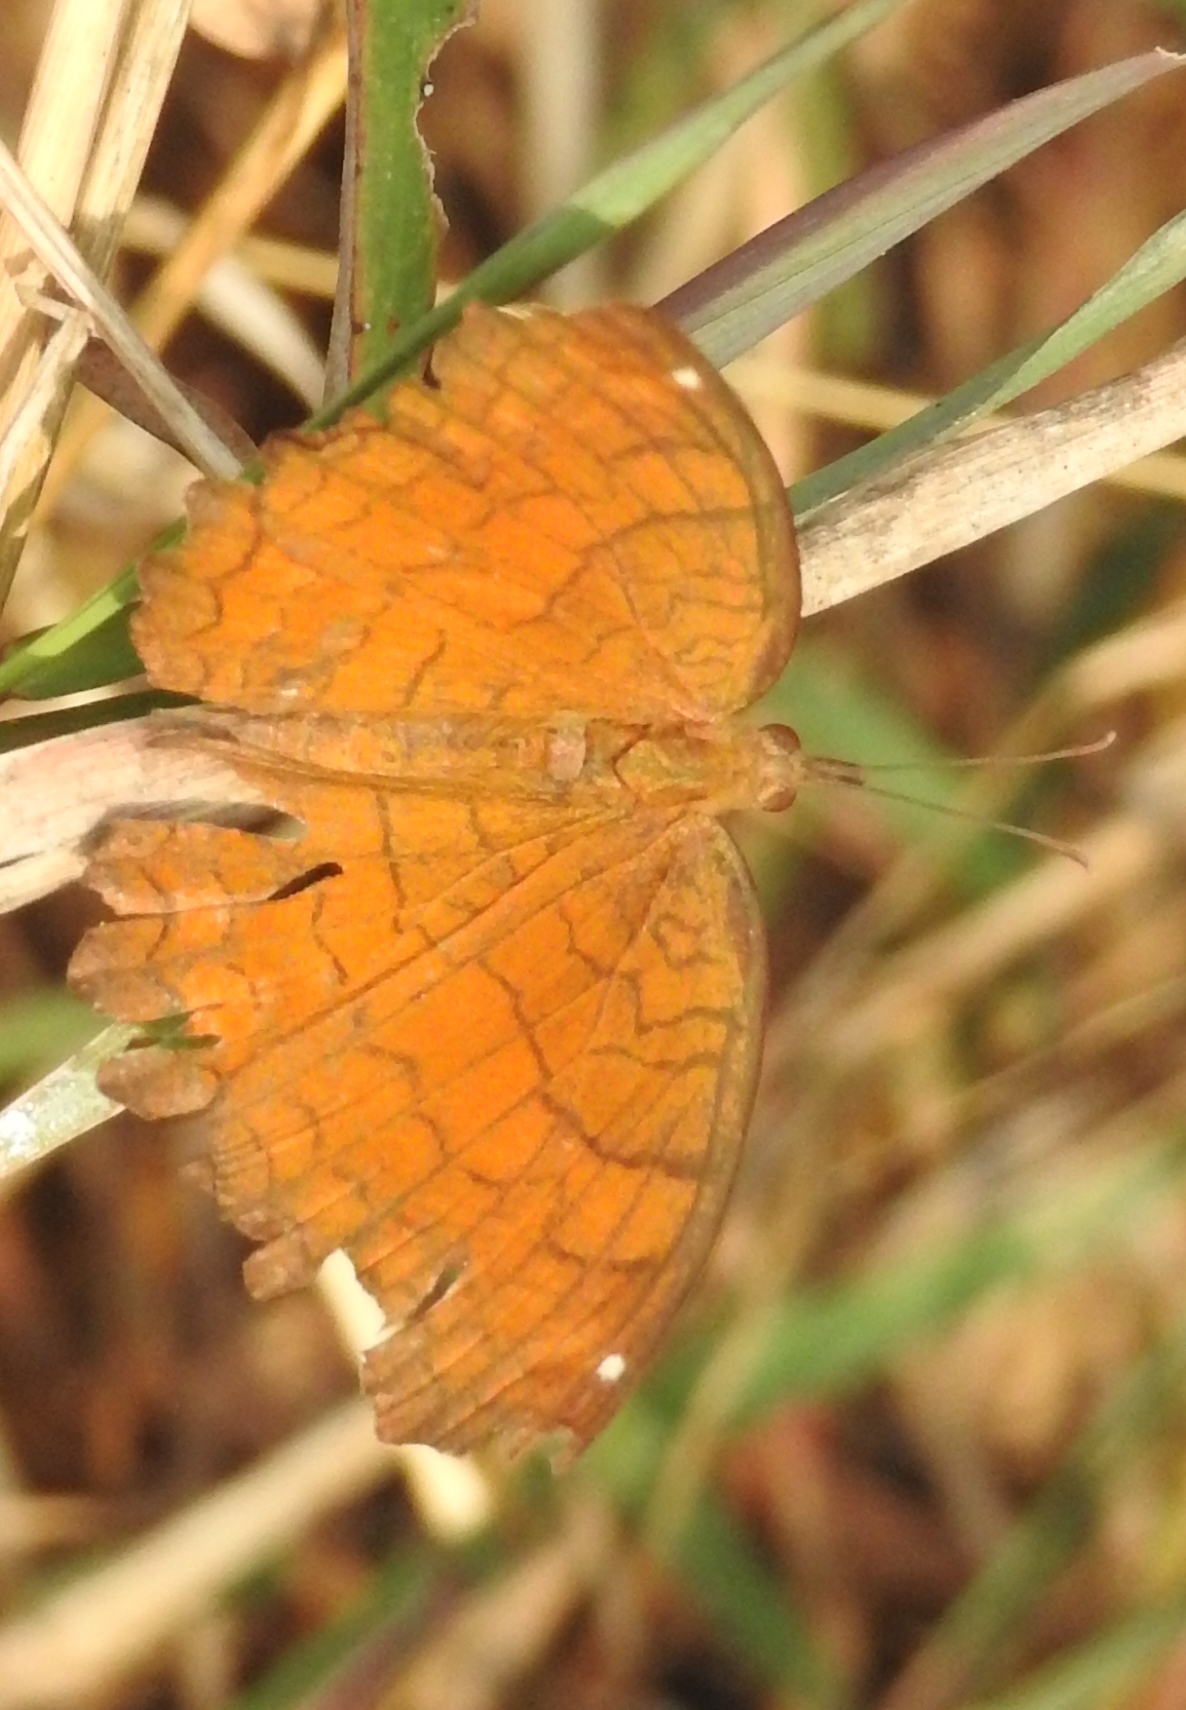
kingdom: Animalia
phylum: Arthropoda
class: Insecta
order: Lepidoptera
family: Nymphalidae
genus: Ariadne
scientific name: Ariadne ariadne
